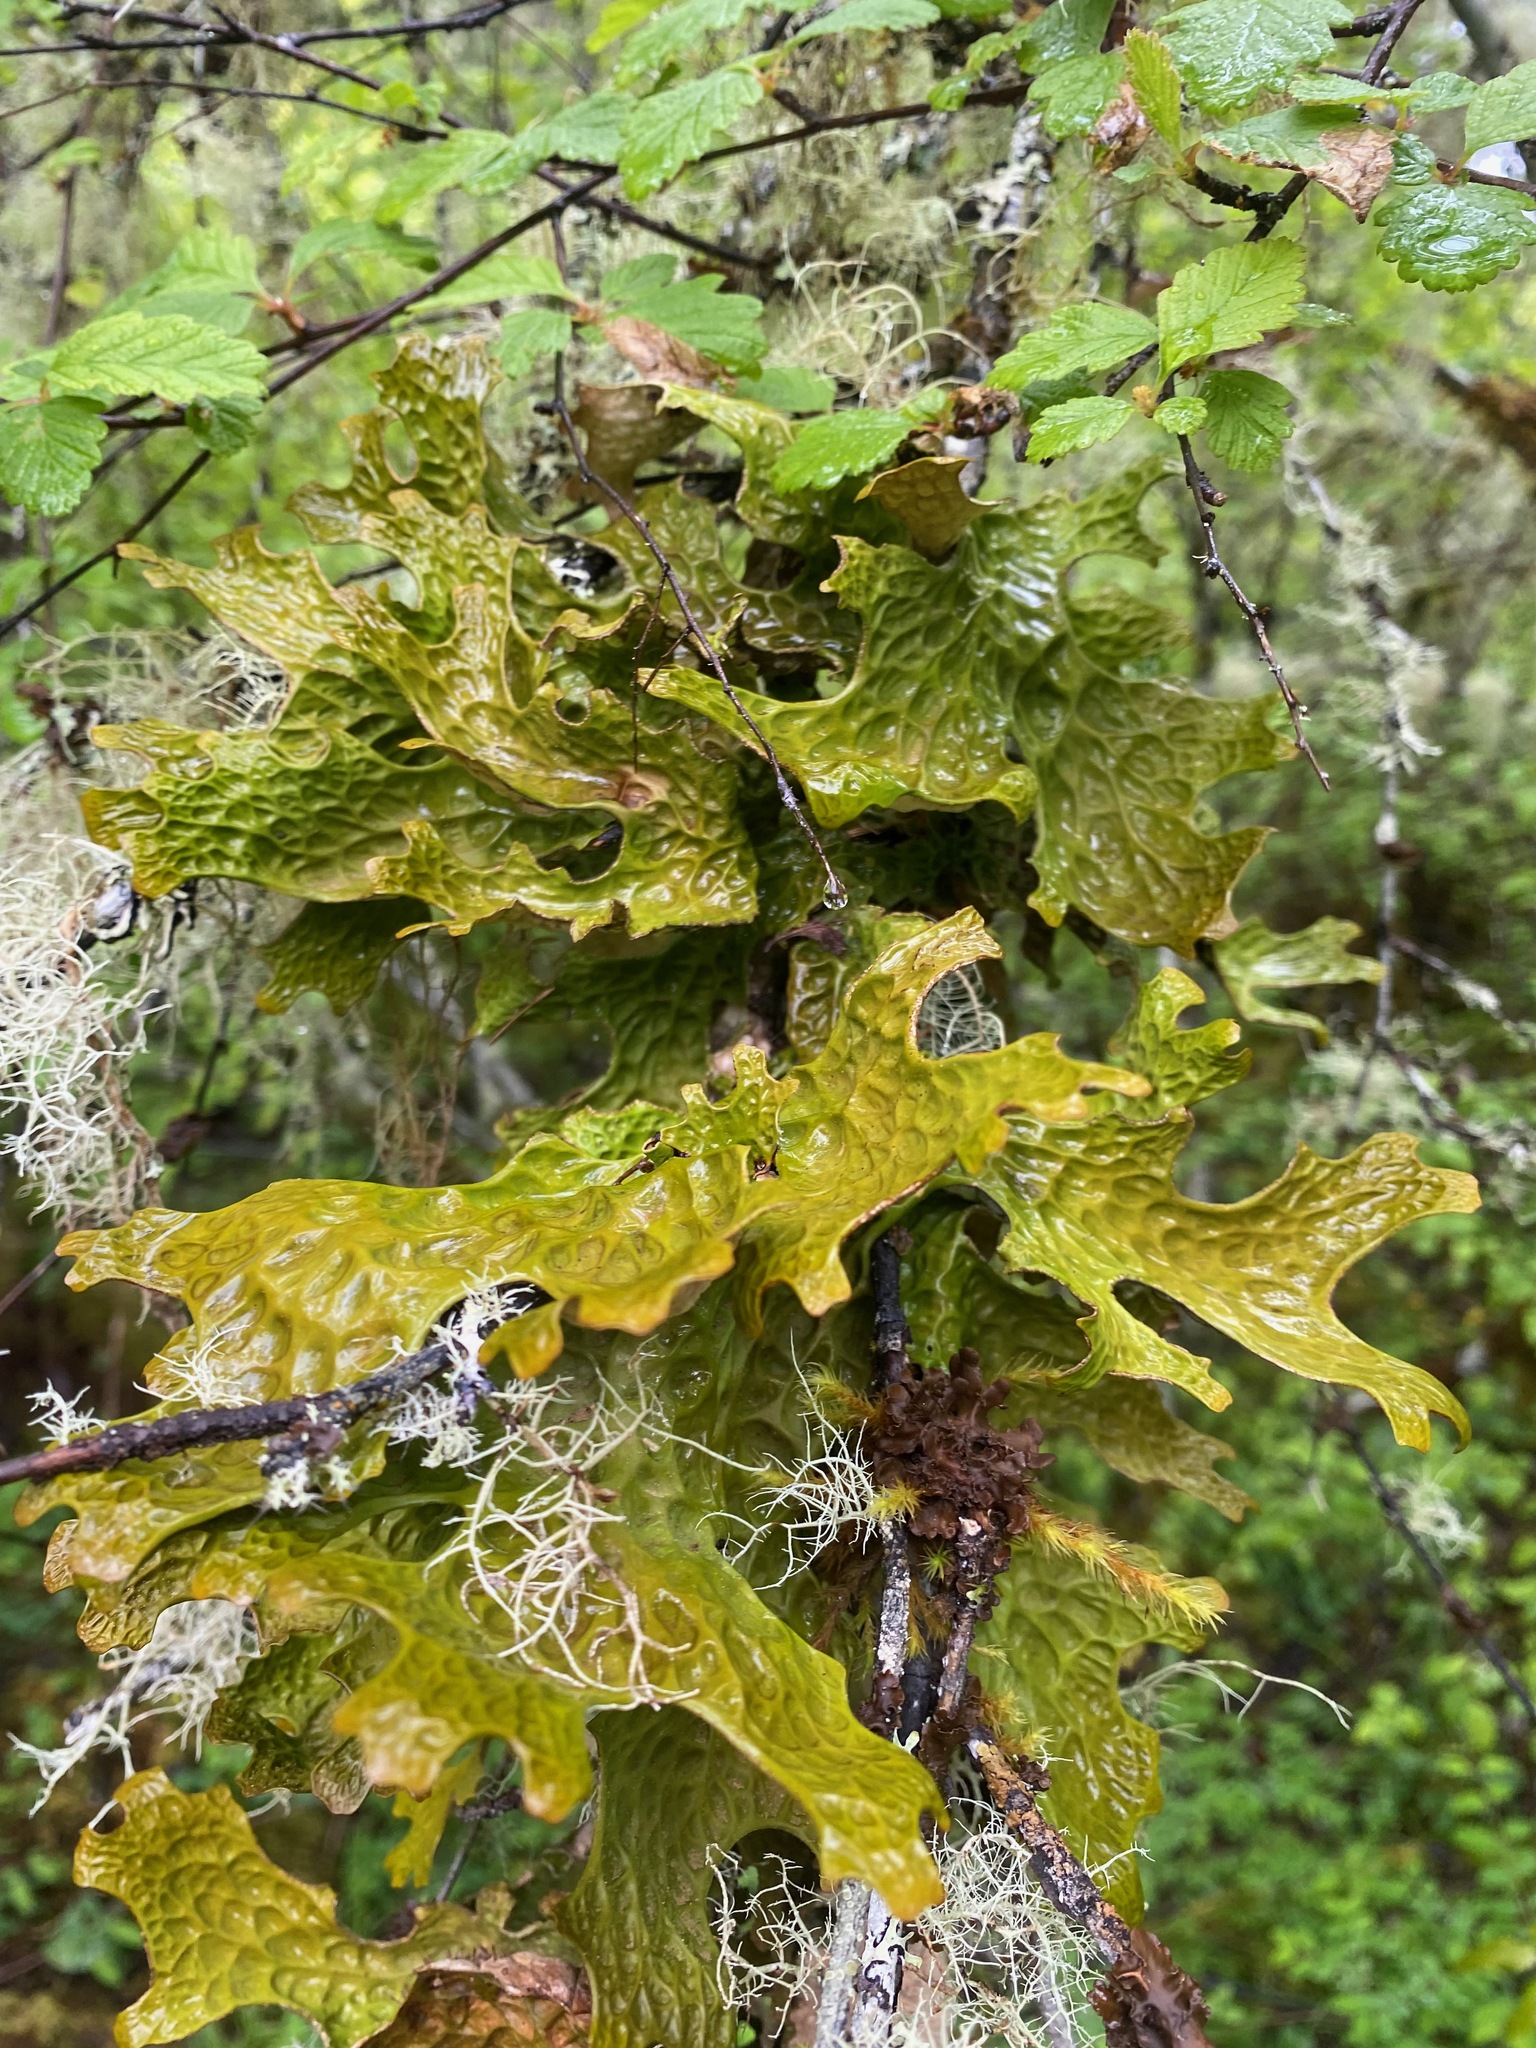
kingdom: Fungi
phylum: Ascomycota
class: Lecanoromycetes
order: Peltigerales
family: Lobariaceae
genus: Lobaria
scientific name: Lobaria pulmonaria
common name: Lungwort
